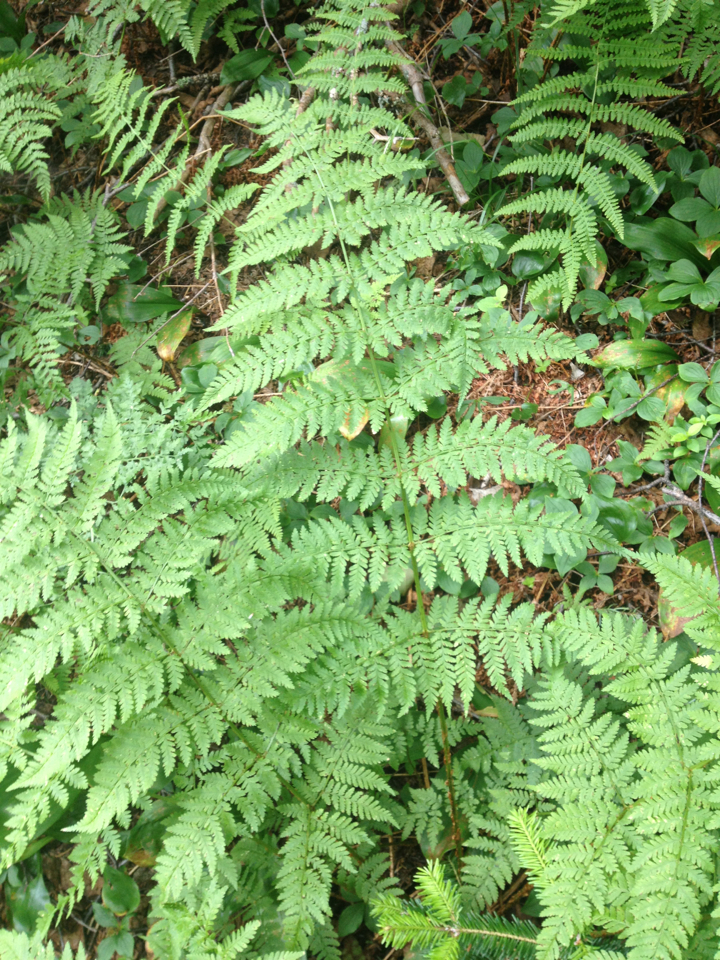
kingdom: Plantae
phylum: Tracheophyta
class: Polypodiopsida
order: Polypodiales
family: Dryopteridaceae
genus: Dryopteris
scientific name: Dryopteris campyloptera
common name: Mountain wood fern
